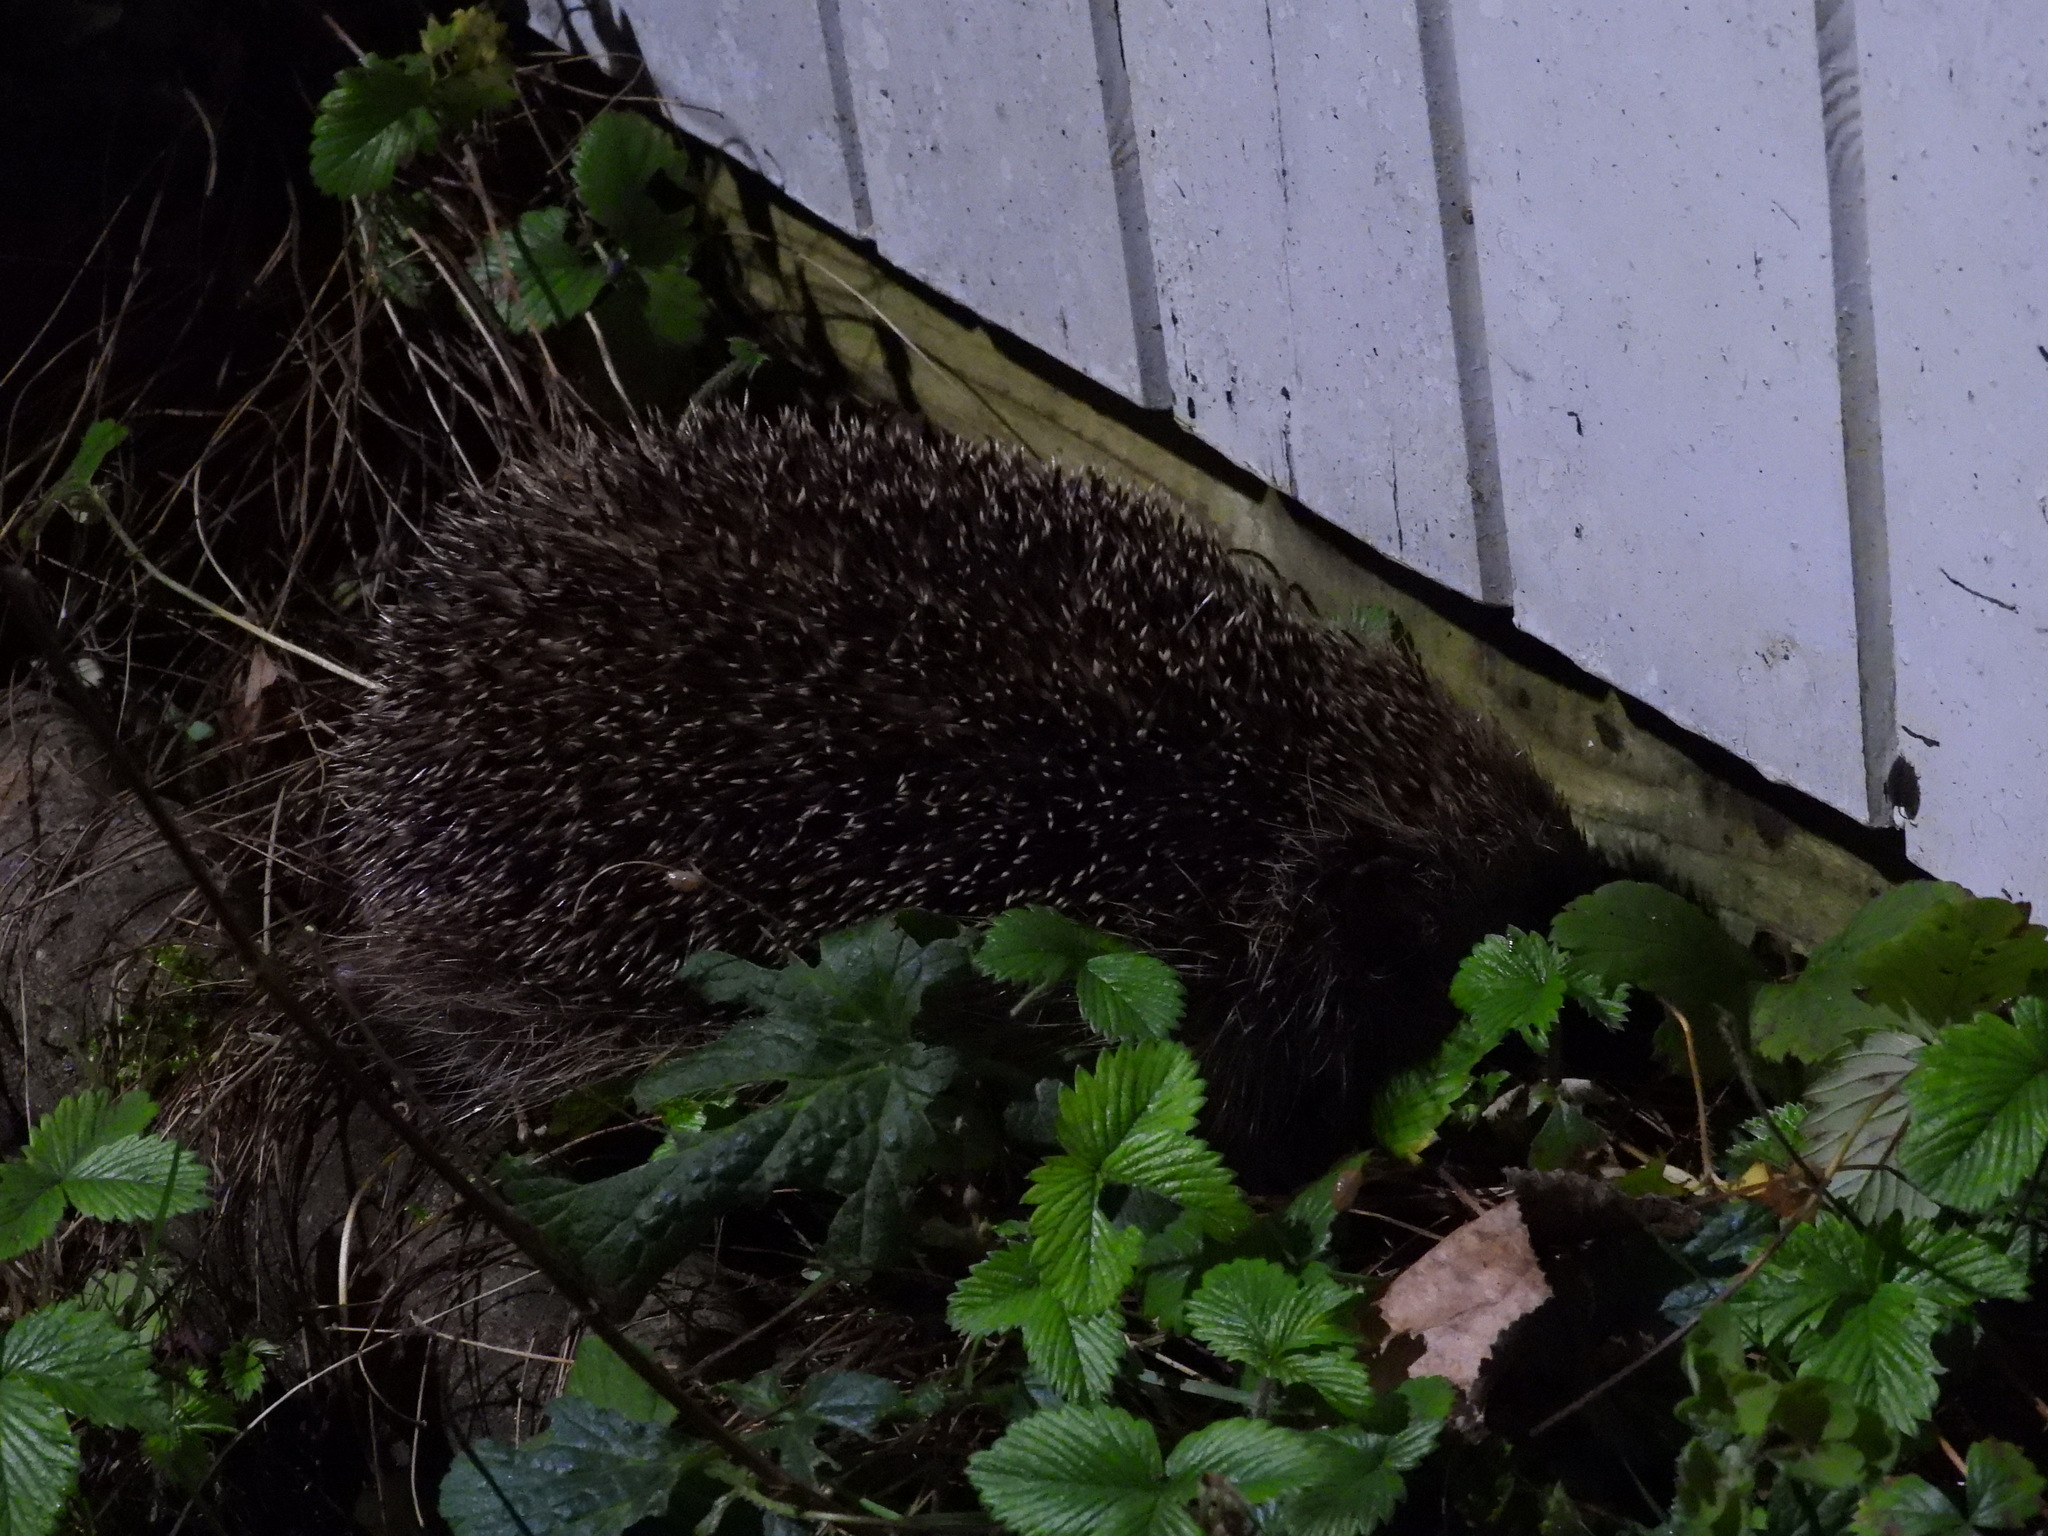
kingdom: Animalia
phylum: Chordata
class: Mammalia
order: Erinaceomorpha
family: Erinaceidae
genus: Erinaceus
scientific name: Erinaceus europaeus
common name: West european hedgehog
